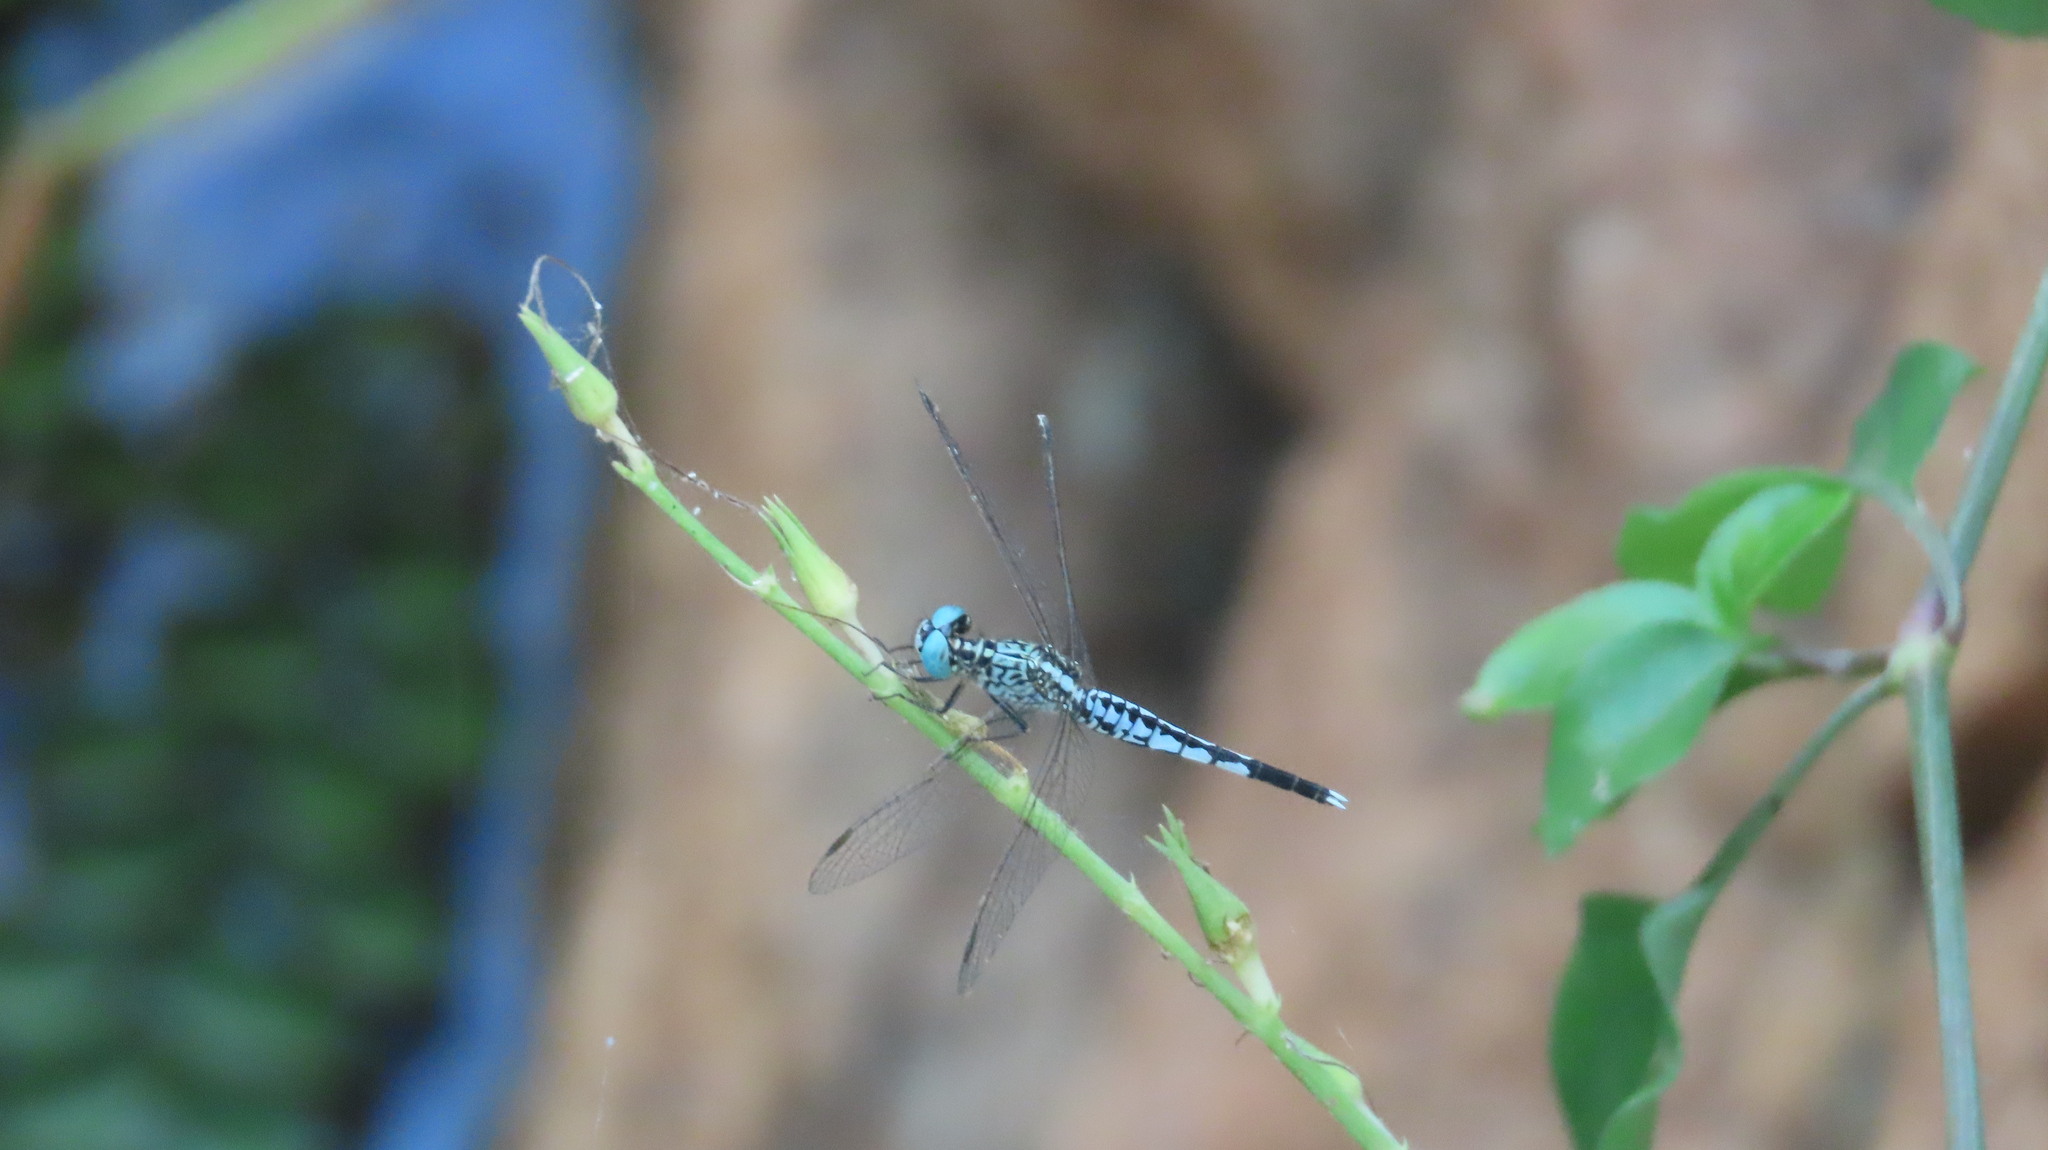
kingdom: Animalia
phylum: Arthropoda
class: Insecta
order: Odonata
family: Libellulidae
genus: Acisoma
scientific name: Acisoma panorpoides
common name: Asian pintail
